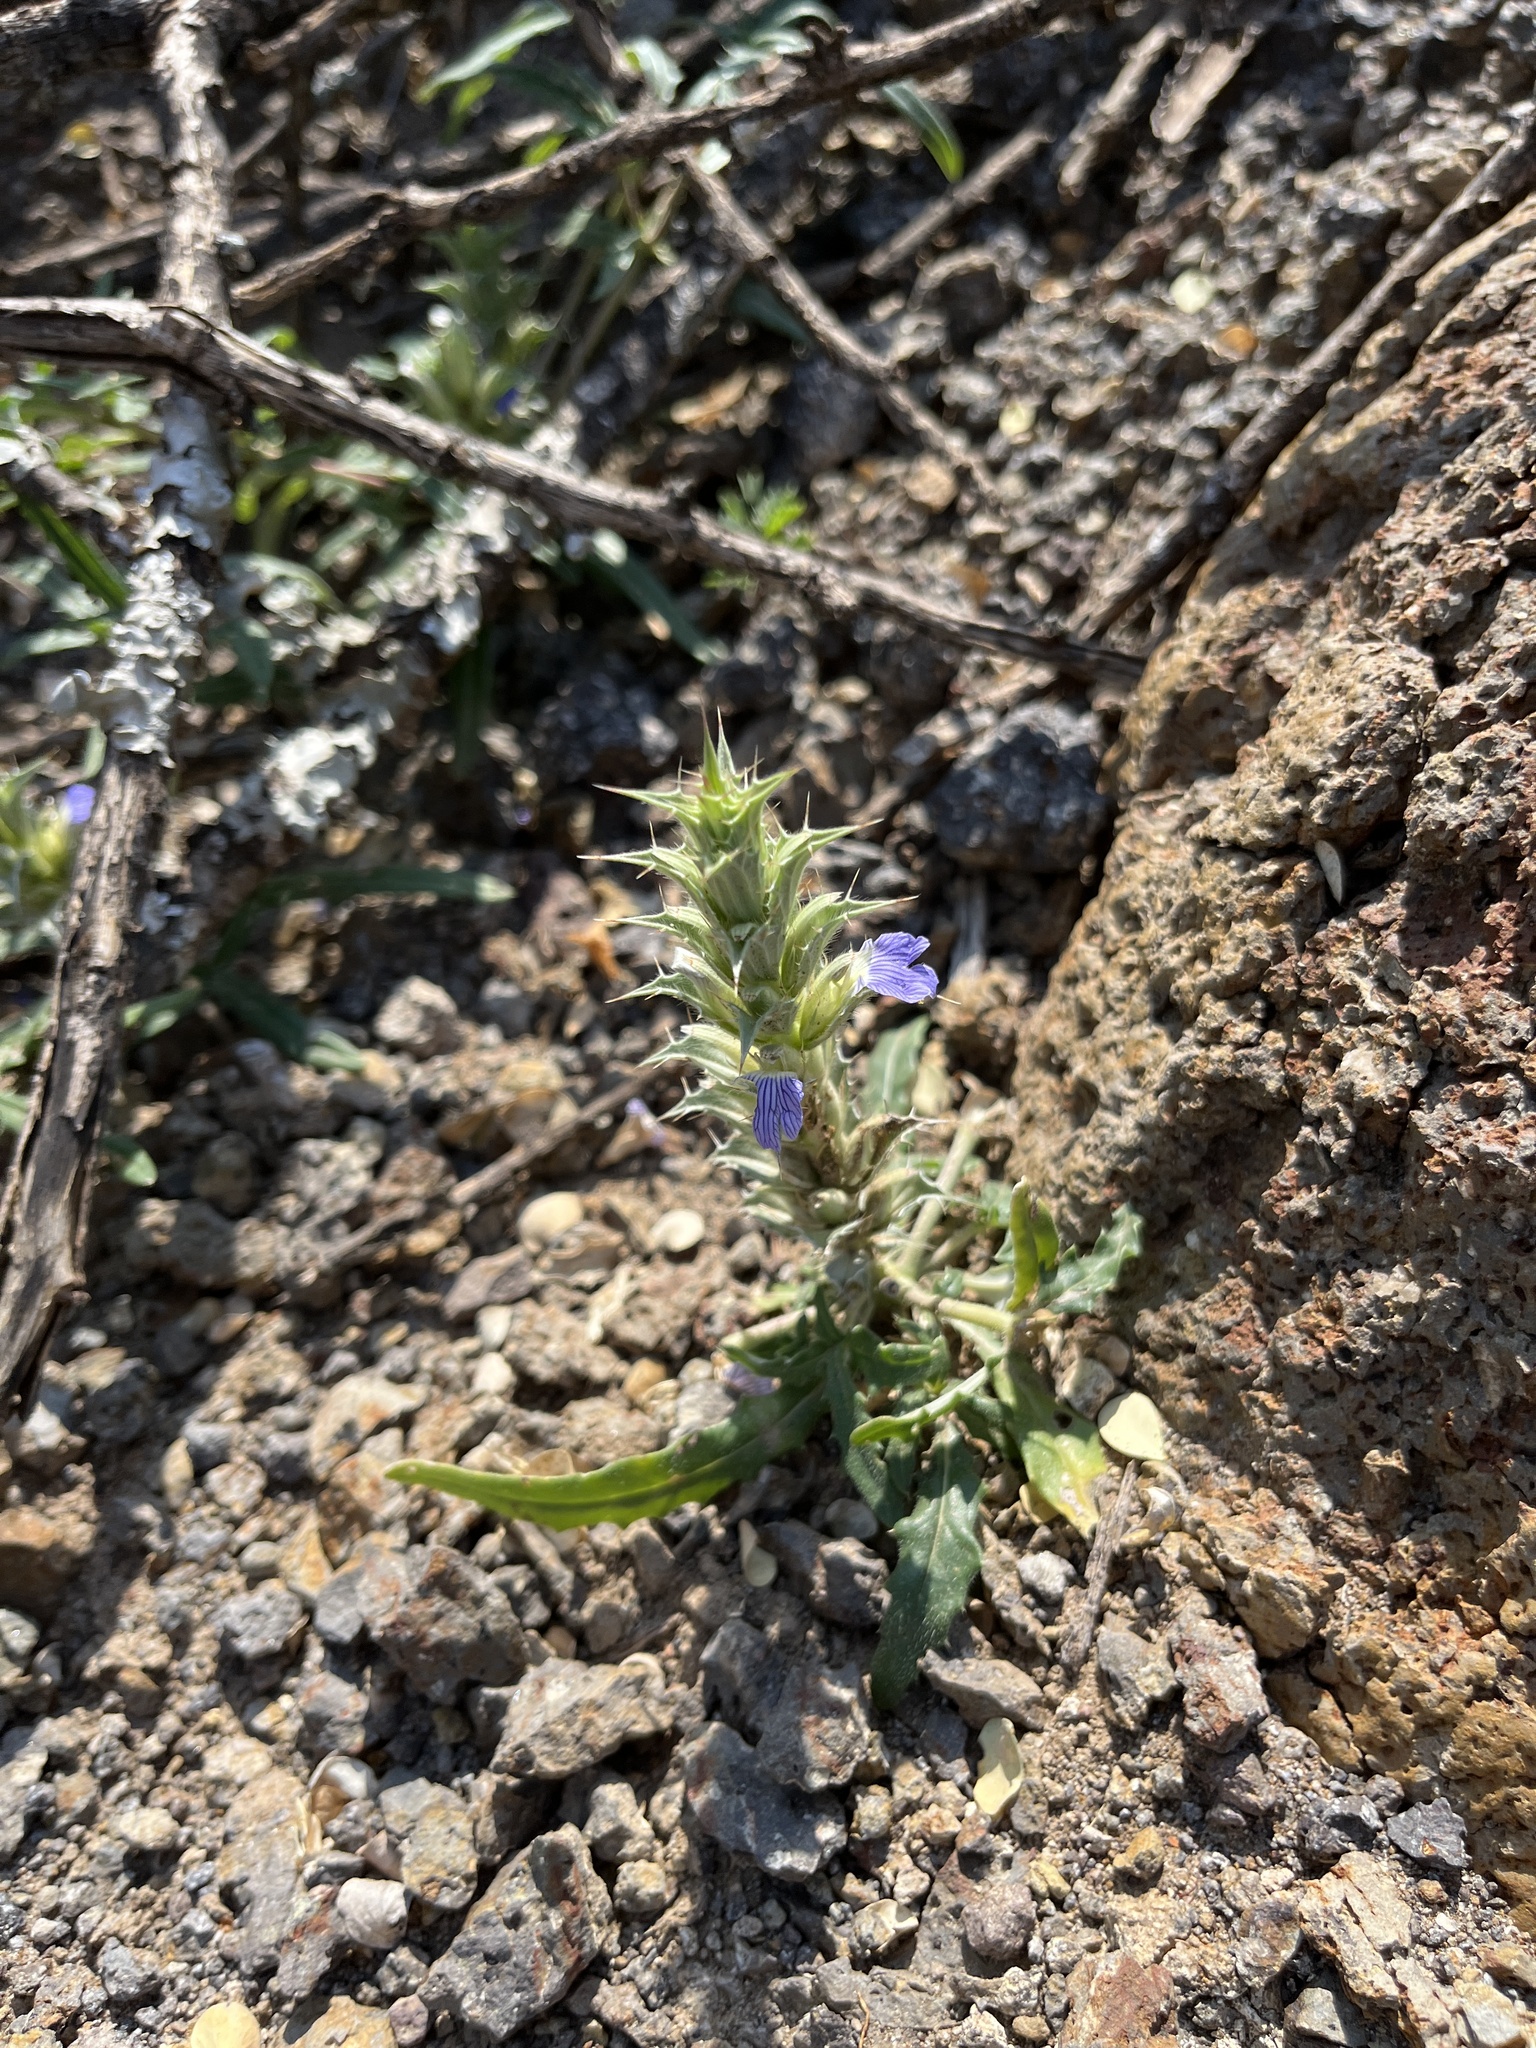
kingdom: Plantae
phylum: Tracheophyta
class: Magnoliopsida
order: Lamiales
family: Acanthaceae
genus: Blepharis
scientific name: Blepharis edulis
